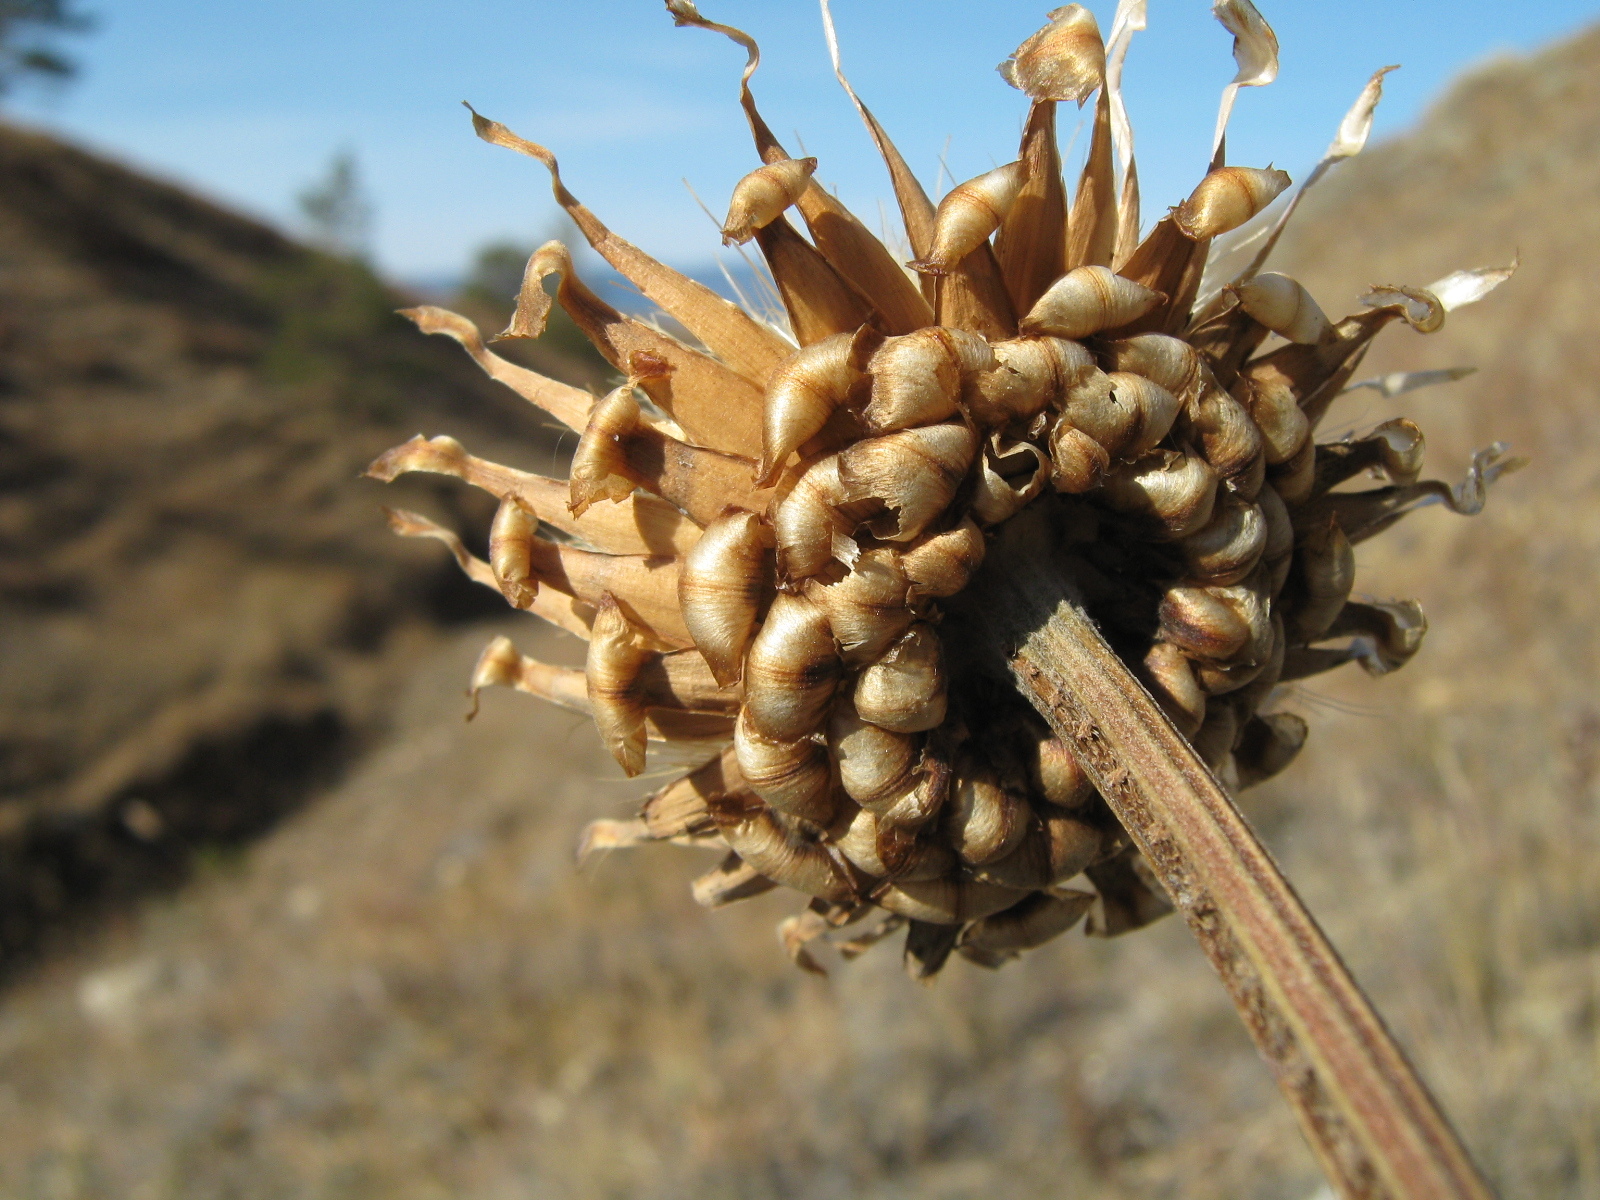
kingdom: Plantae
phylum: Tracheophyta
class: Magnoliopsida
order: Asterales
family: Asteraceae
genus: Leuzea
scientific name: Leuzea uniflora
